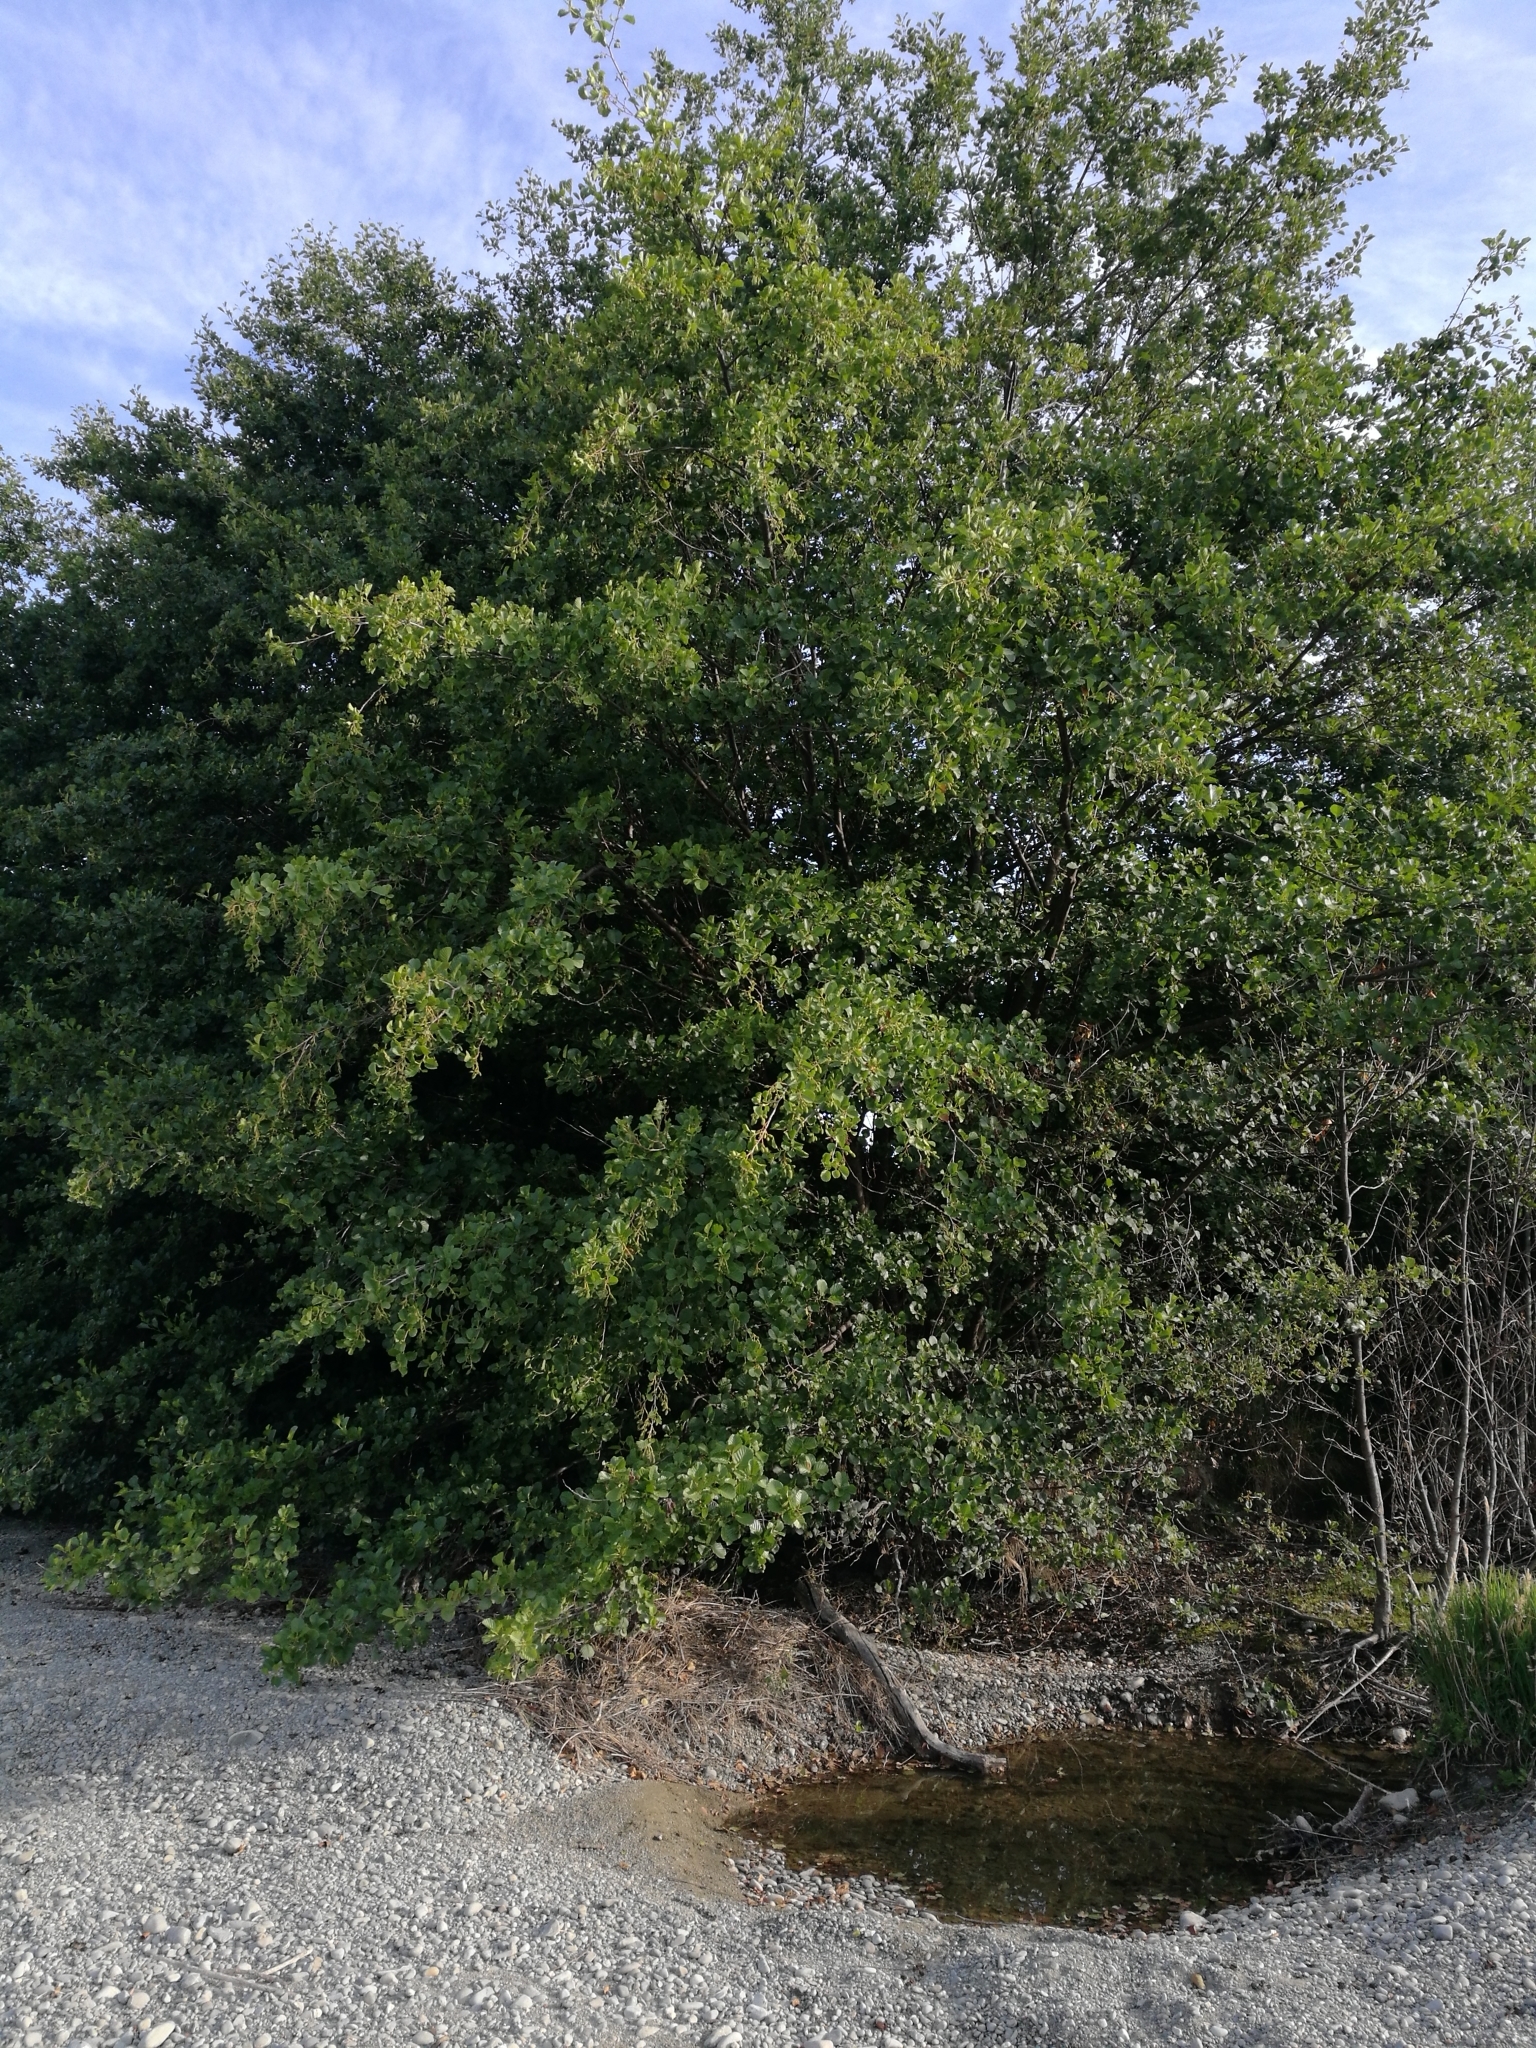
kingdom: Plantae
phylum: Tracheophyta
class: Magnoliopsida
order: Fagales
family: Betulaceae
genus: Alnus
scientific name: Alnus glutinosa
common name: Black alder
